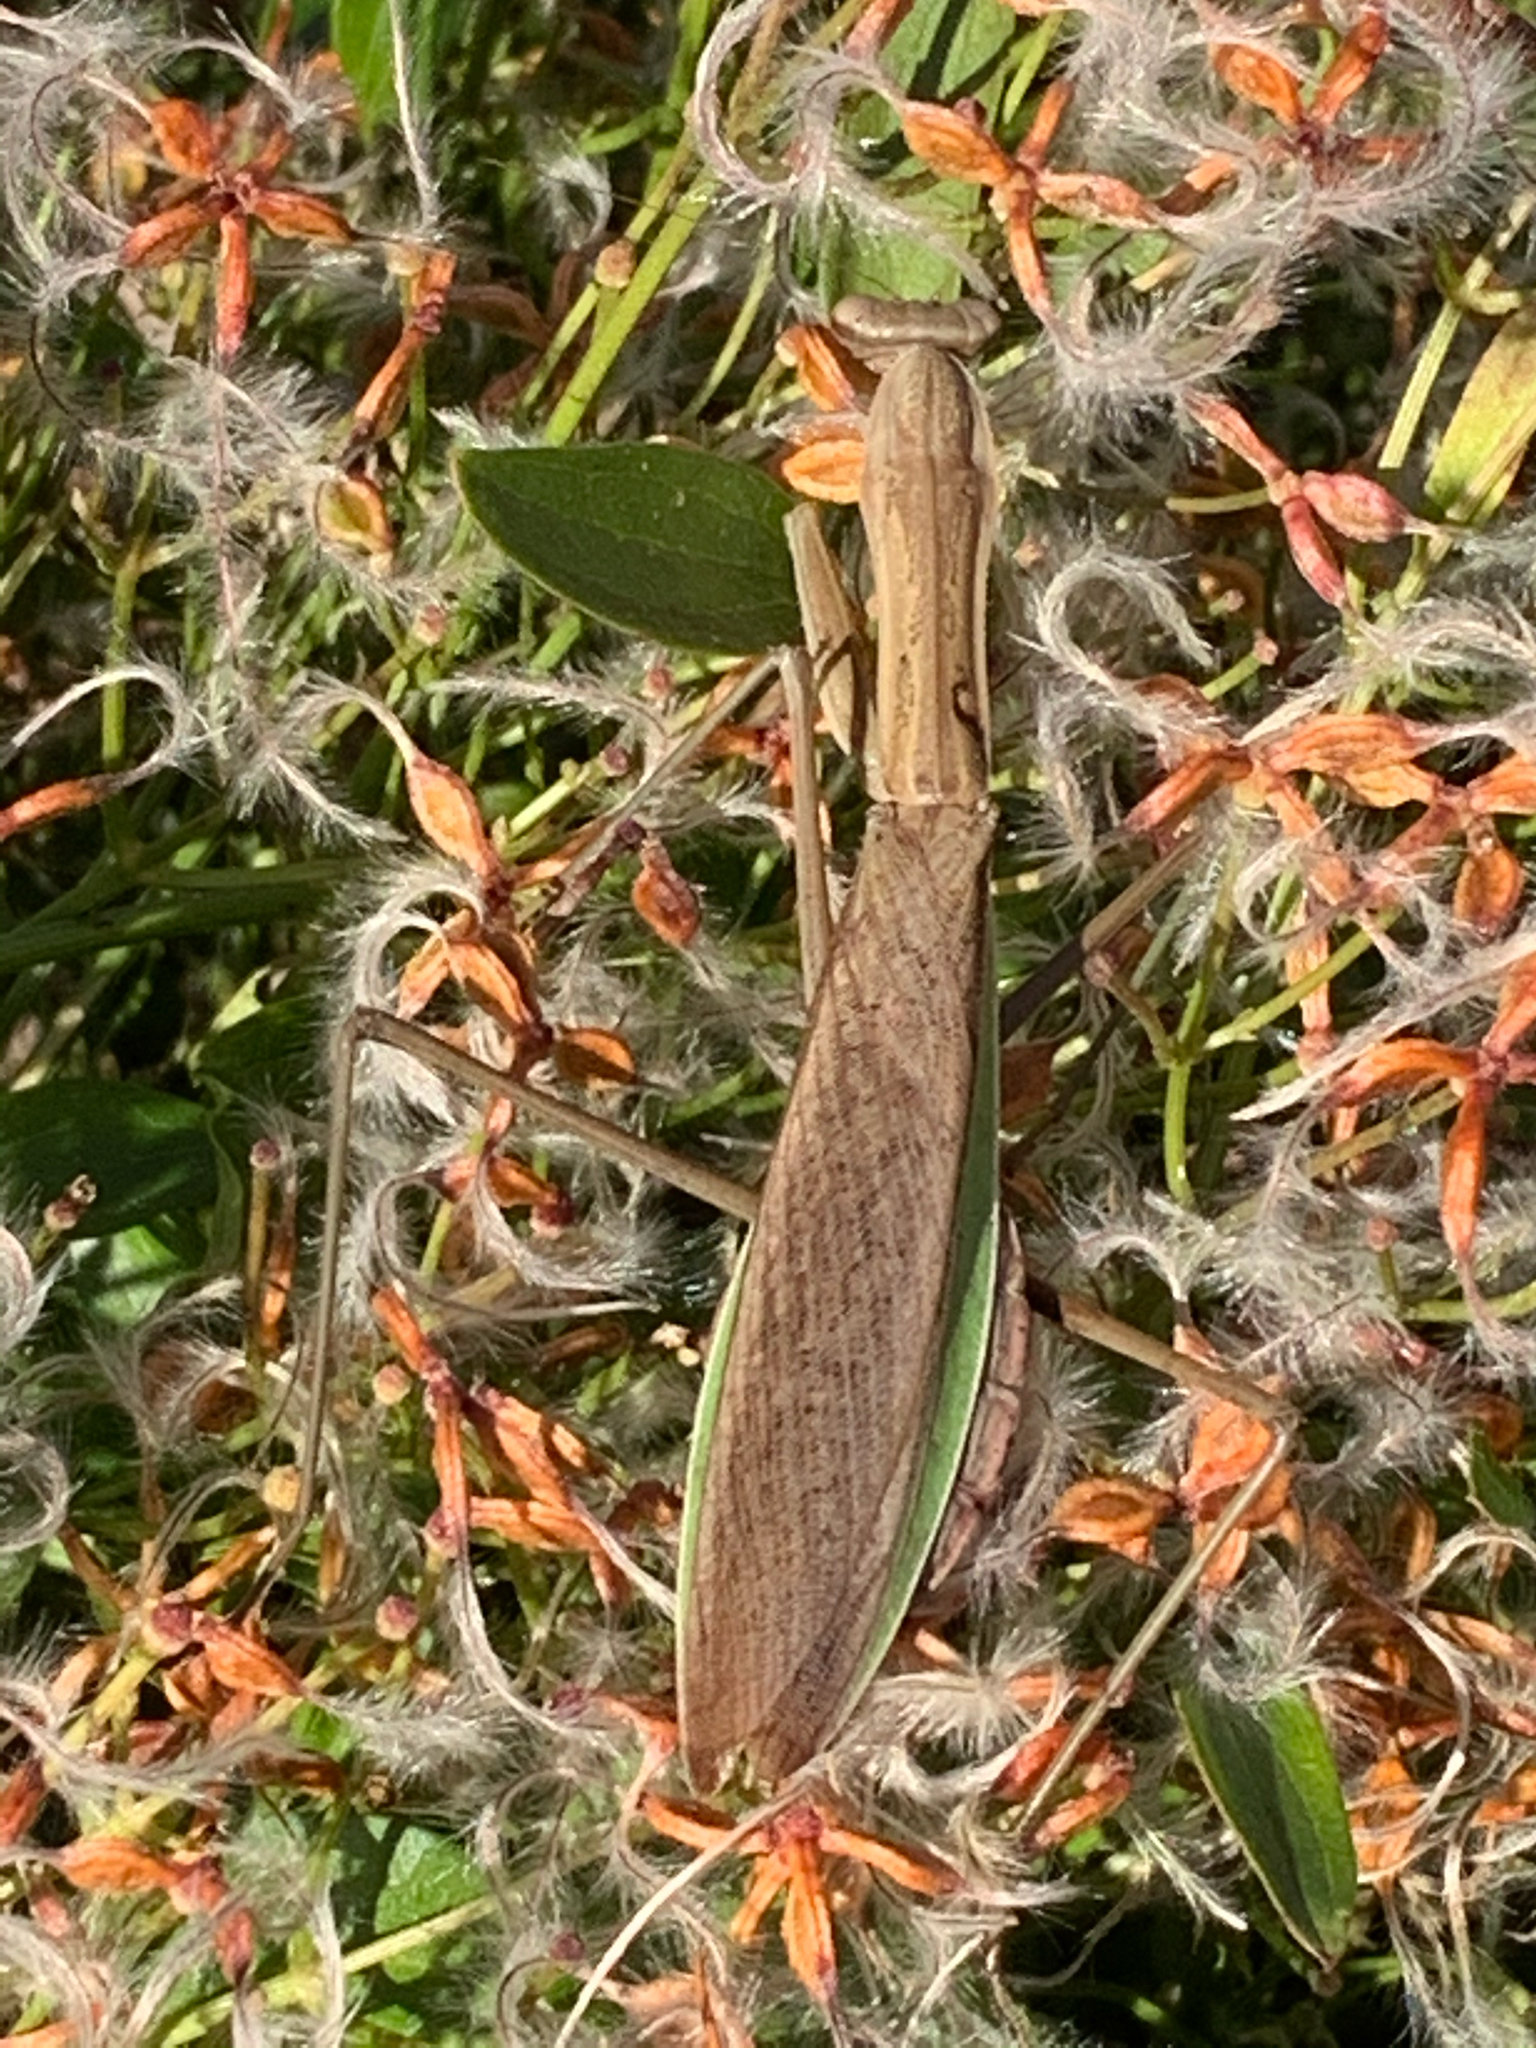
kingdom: Animalia
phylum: Arthropoda
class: Insecta
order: Mantodea
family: Mantidae
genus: Tenodera
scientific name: Tenodera sinensis
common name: Chinese mantis
